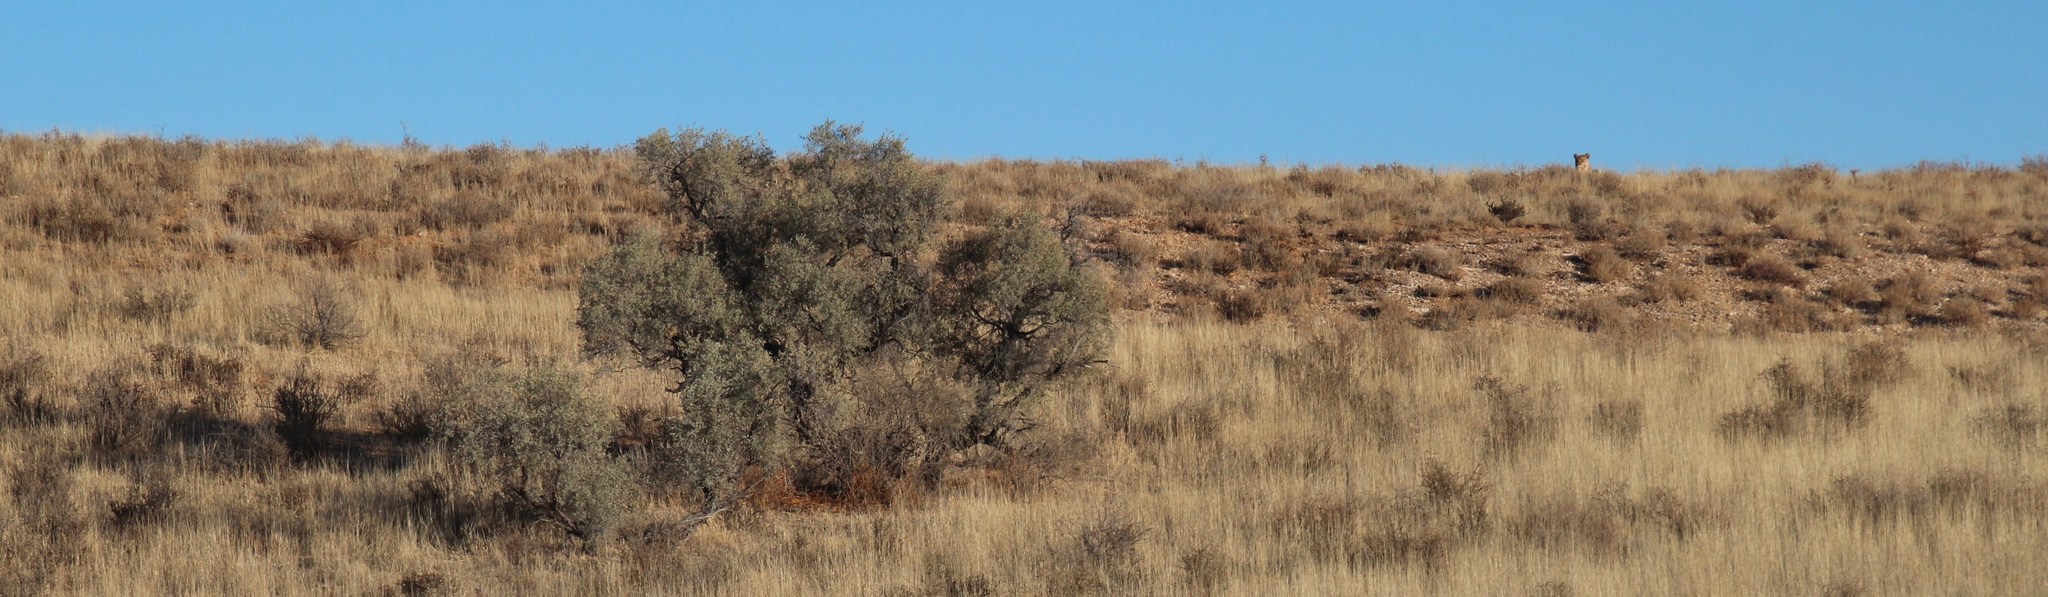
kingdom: Plantae
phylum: Tracheophyta
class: Magnoliopsida
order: Fabales
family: Fabaceae
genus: Vachellia
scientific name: Vachellia haematoxylon
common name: Grey camel thorn
